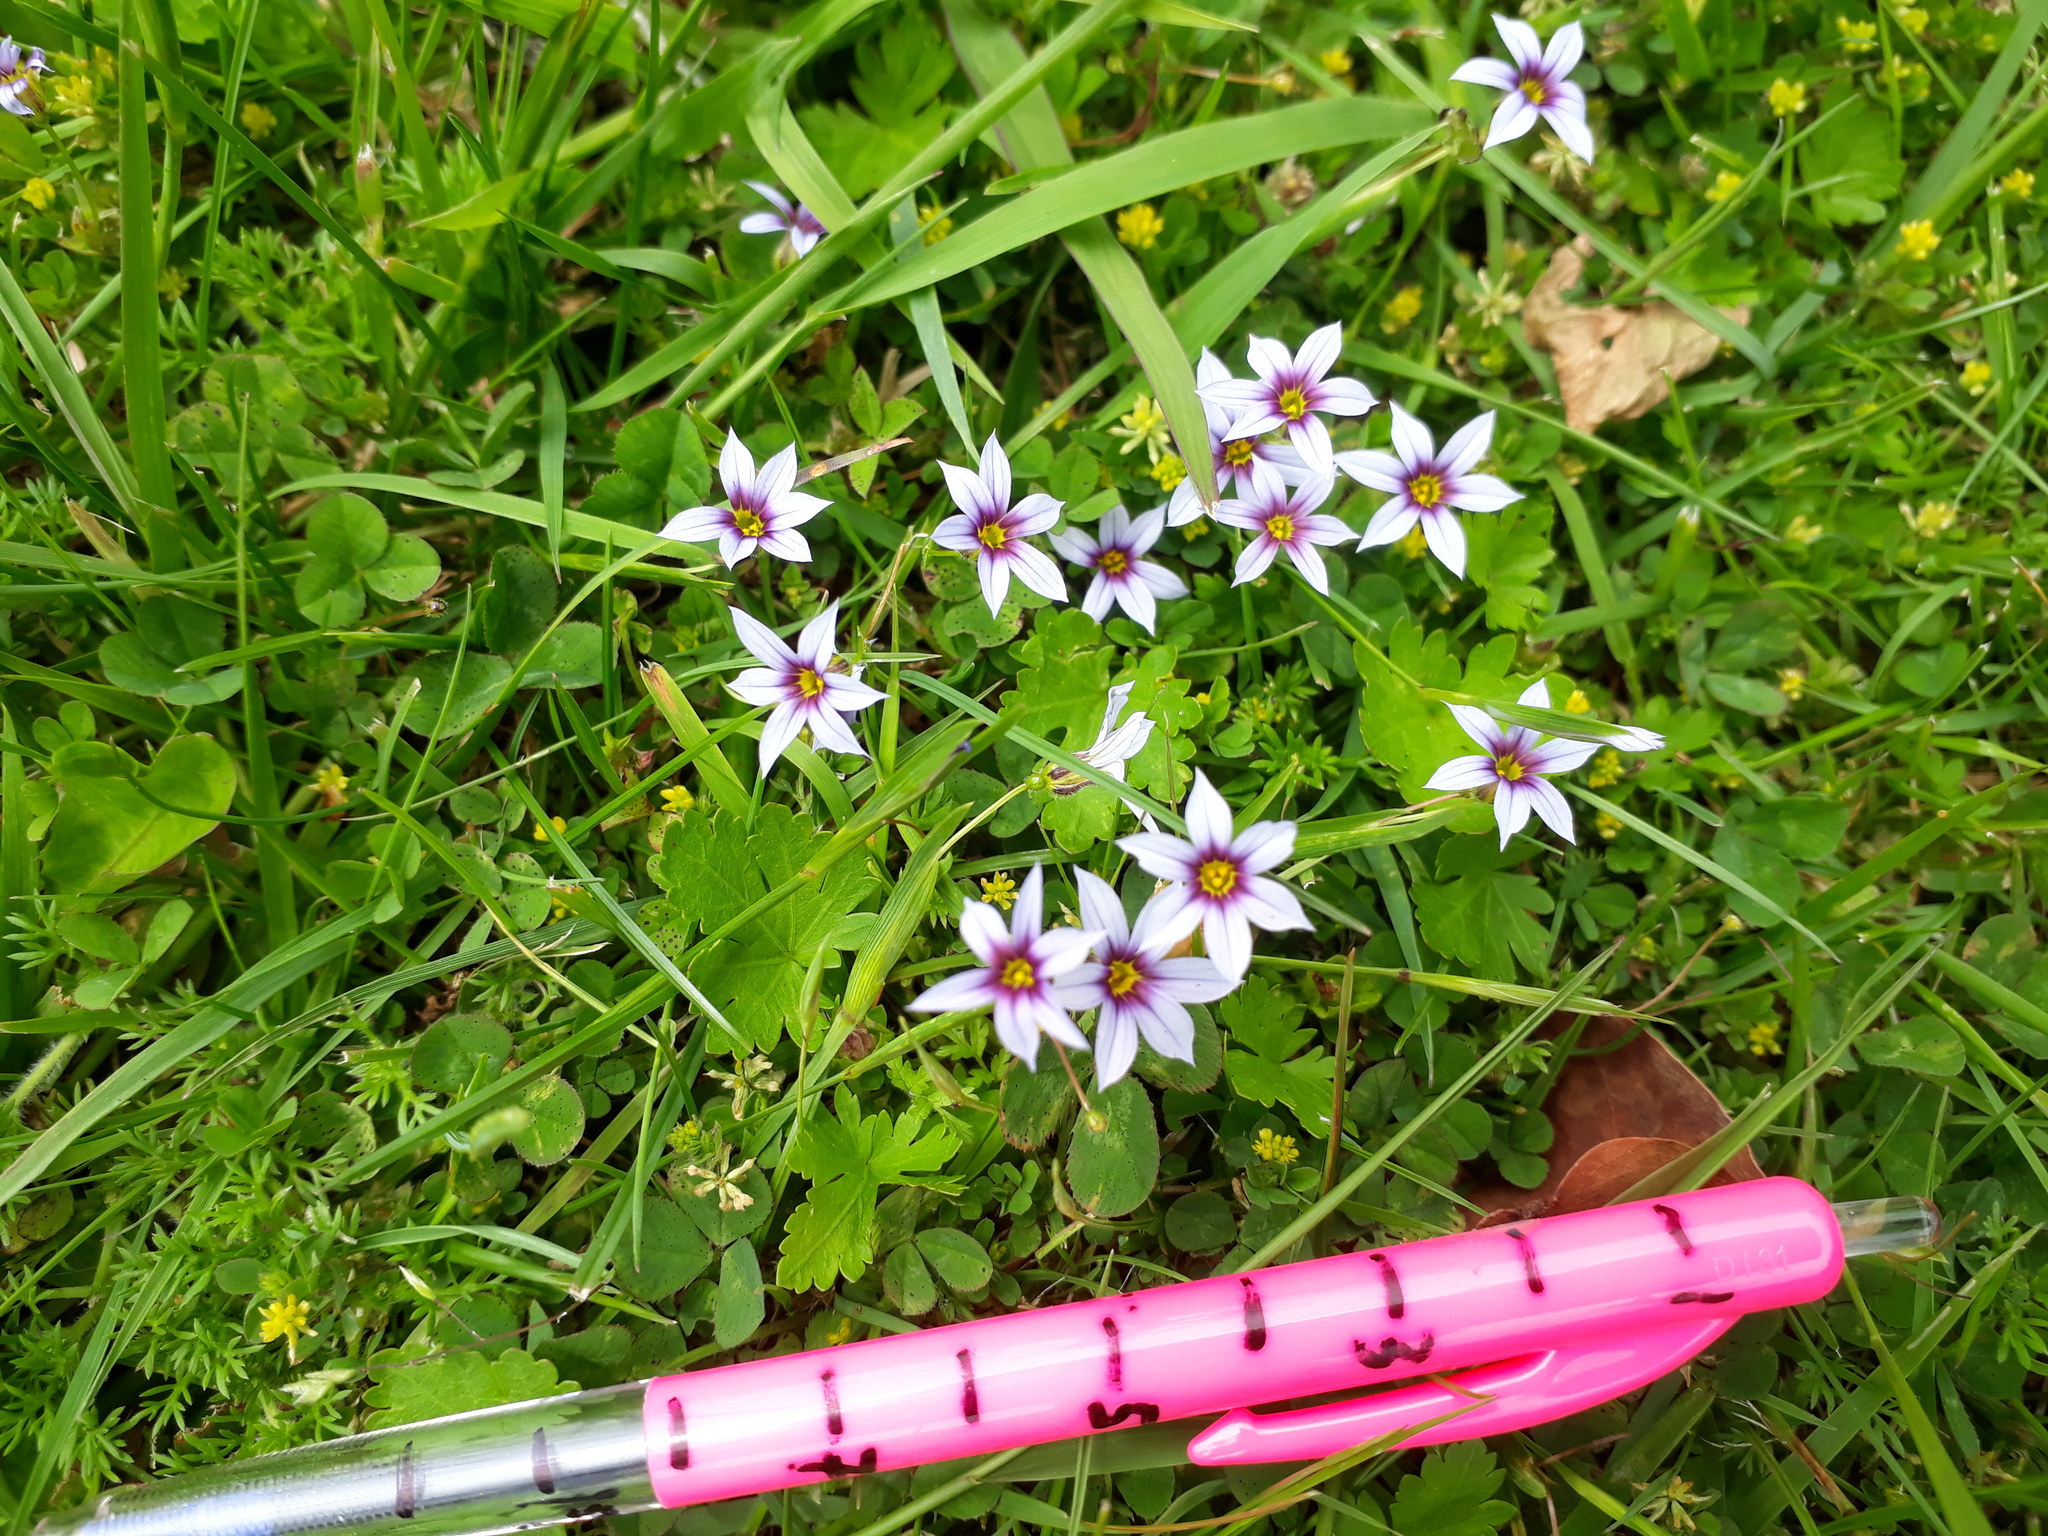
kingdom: Plantae
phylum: Tracheophyta
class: Liliopsida
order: Asparagales
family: Iridaceae
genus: Sisyrinchium
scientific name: Sisyrinchium micranthum
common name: Bermuda pigroot
